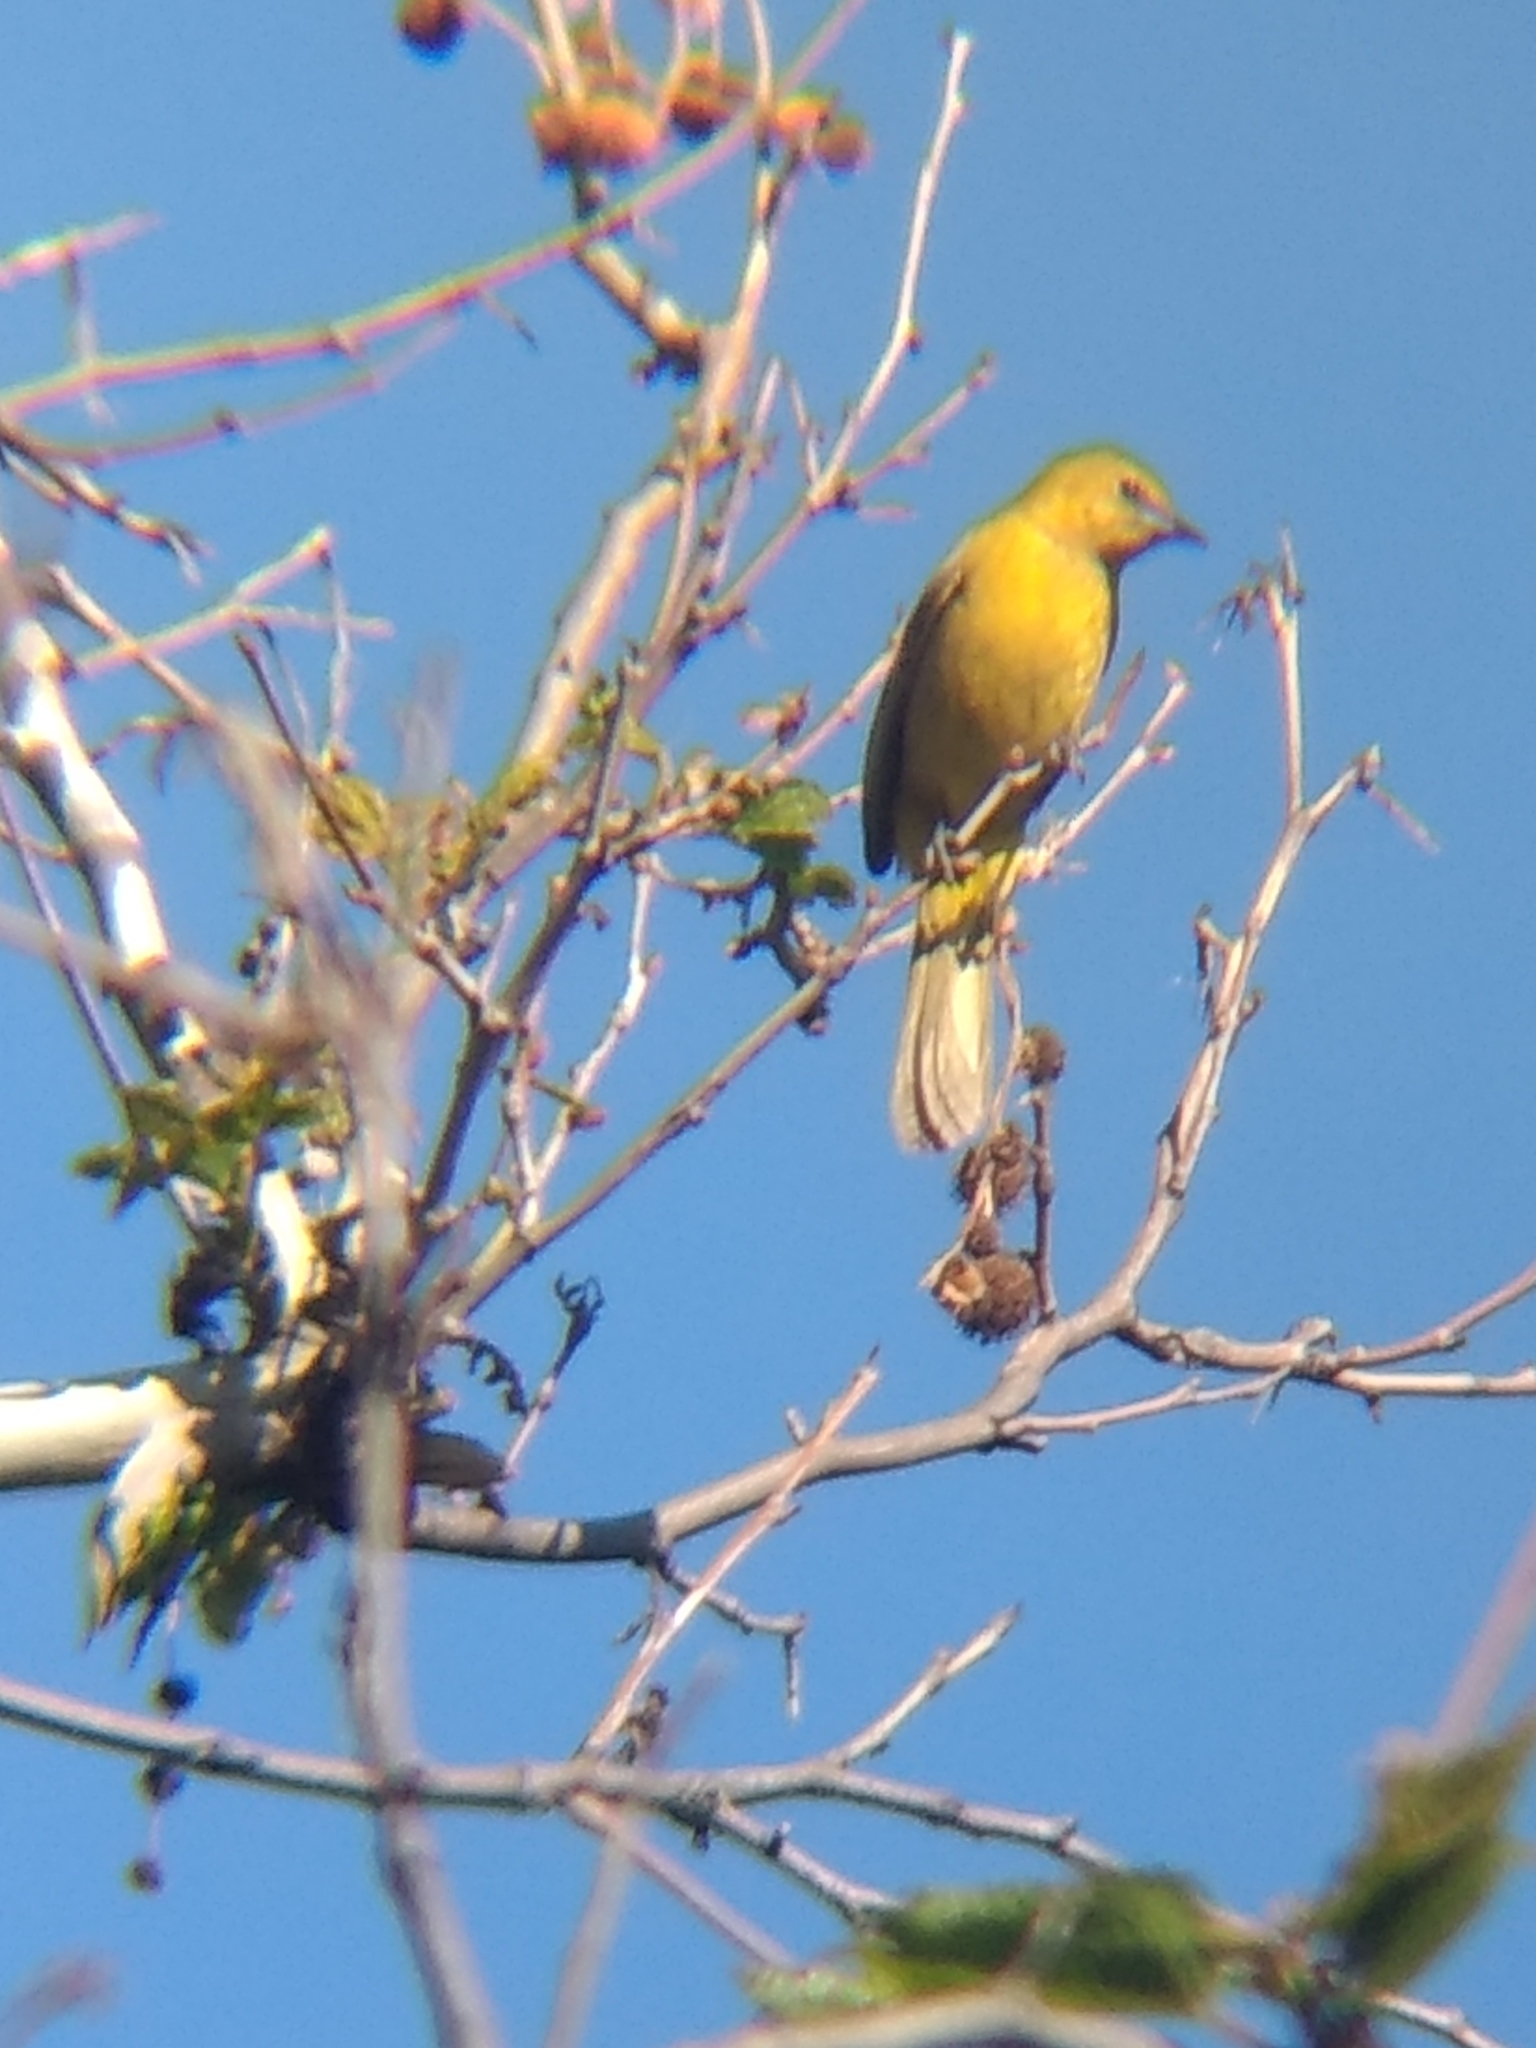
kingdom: Animalia
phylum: Chordata
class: Aves
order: Passeriformes
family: Icteridae
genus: Icterus
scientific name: Icterus cucullatus
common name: Hooded oriole
